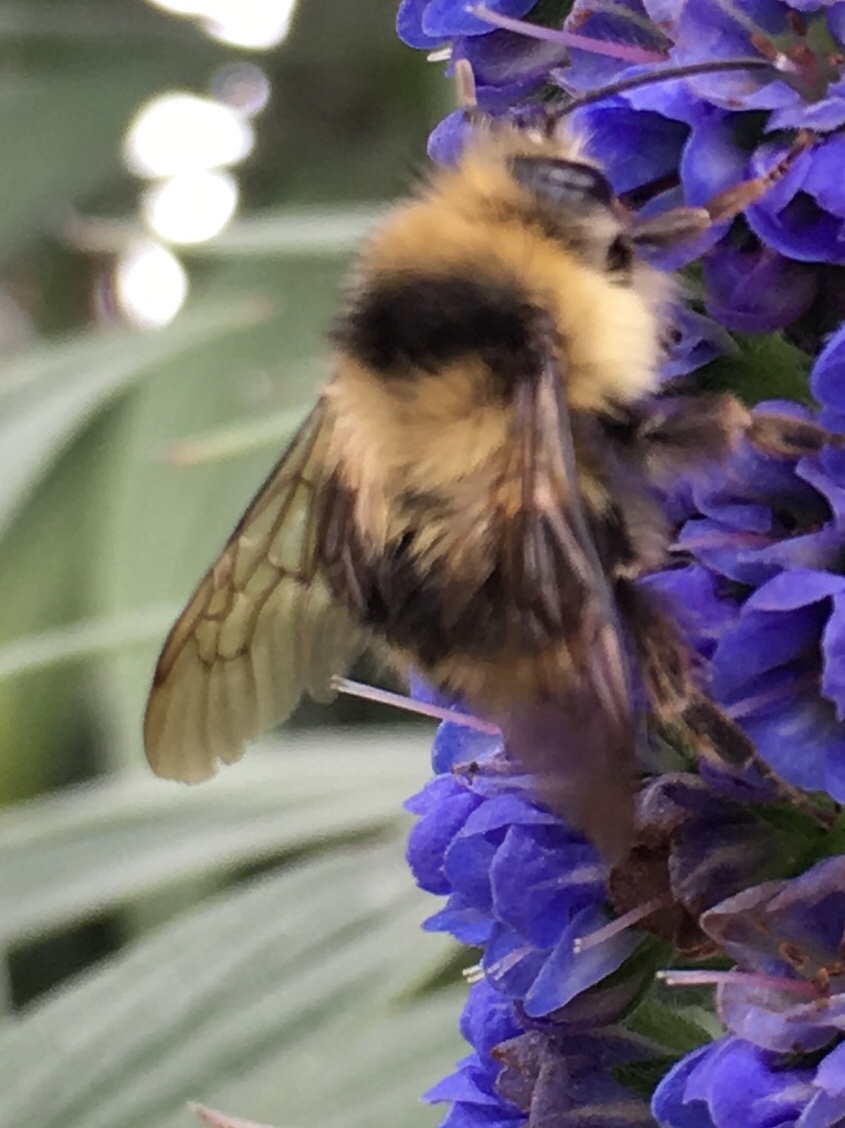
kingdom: Animalia
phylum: Arthropoda
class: Insecta
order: Hymenoptera
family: Apidae
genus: Bombus
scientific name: Bombus melanopygus
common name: Black tail bumble bee
